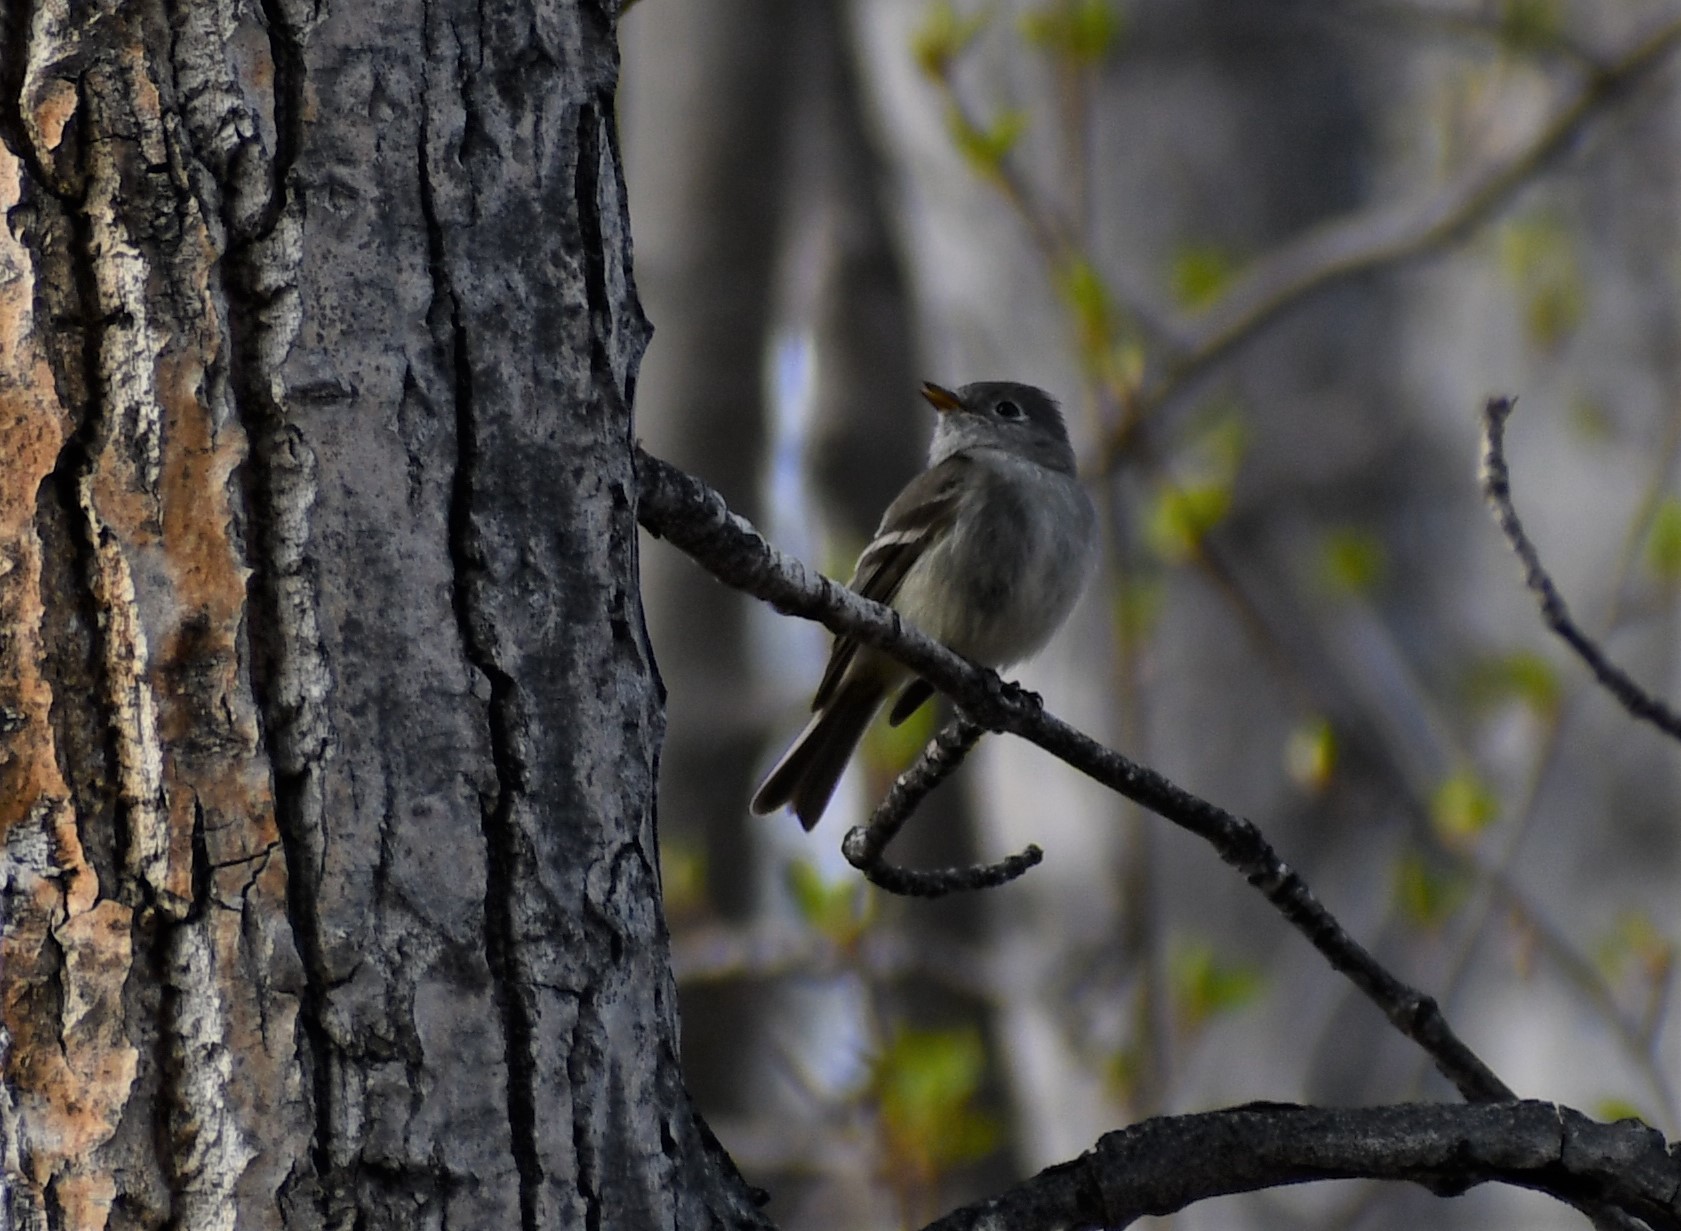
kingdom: Animalia
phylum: Chordata
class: Aves
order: Passeriformes
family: Tyrannidae
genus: Empidonax
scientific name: Empidonax hammondii
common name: Hammond's flycatcher
